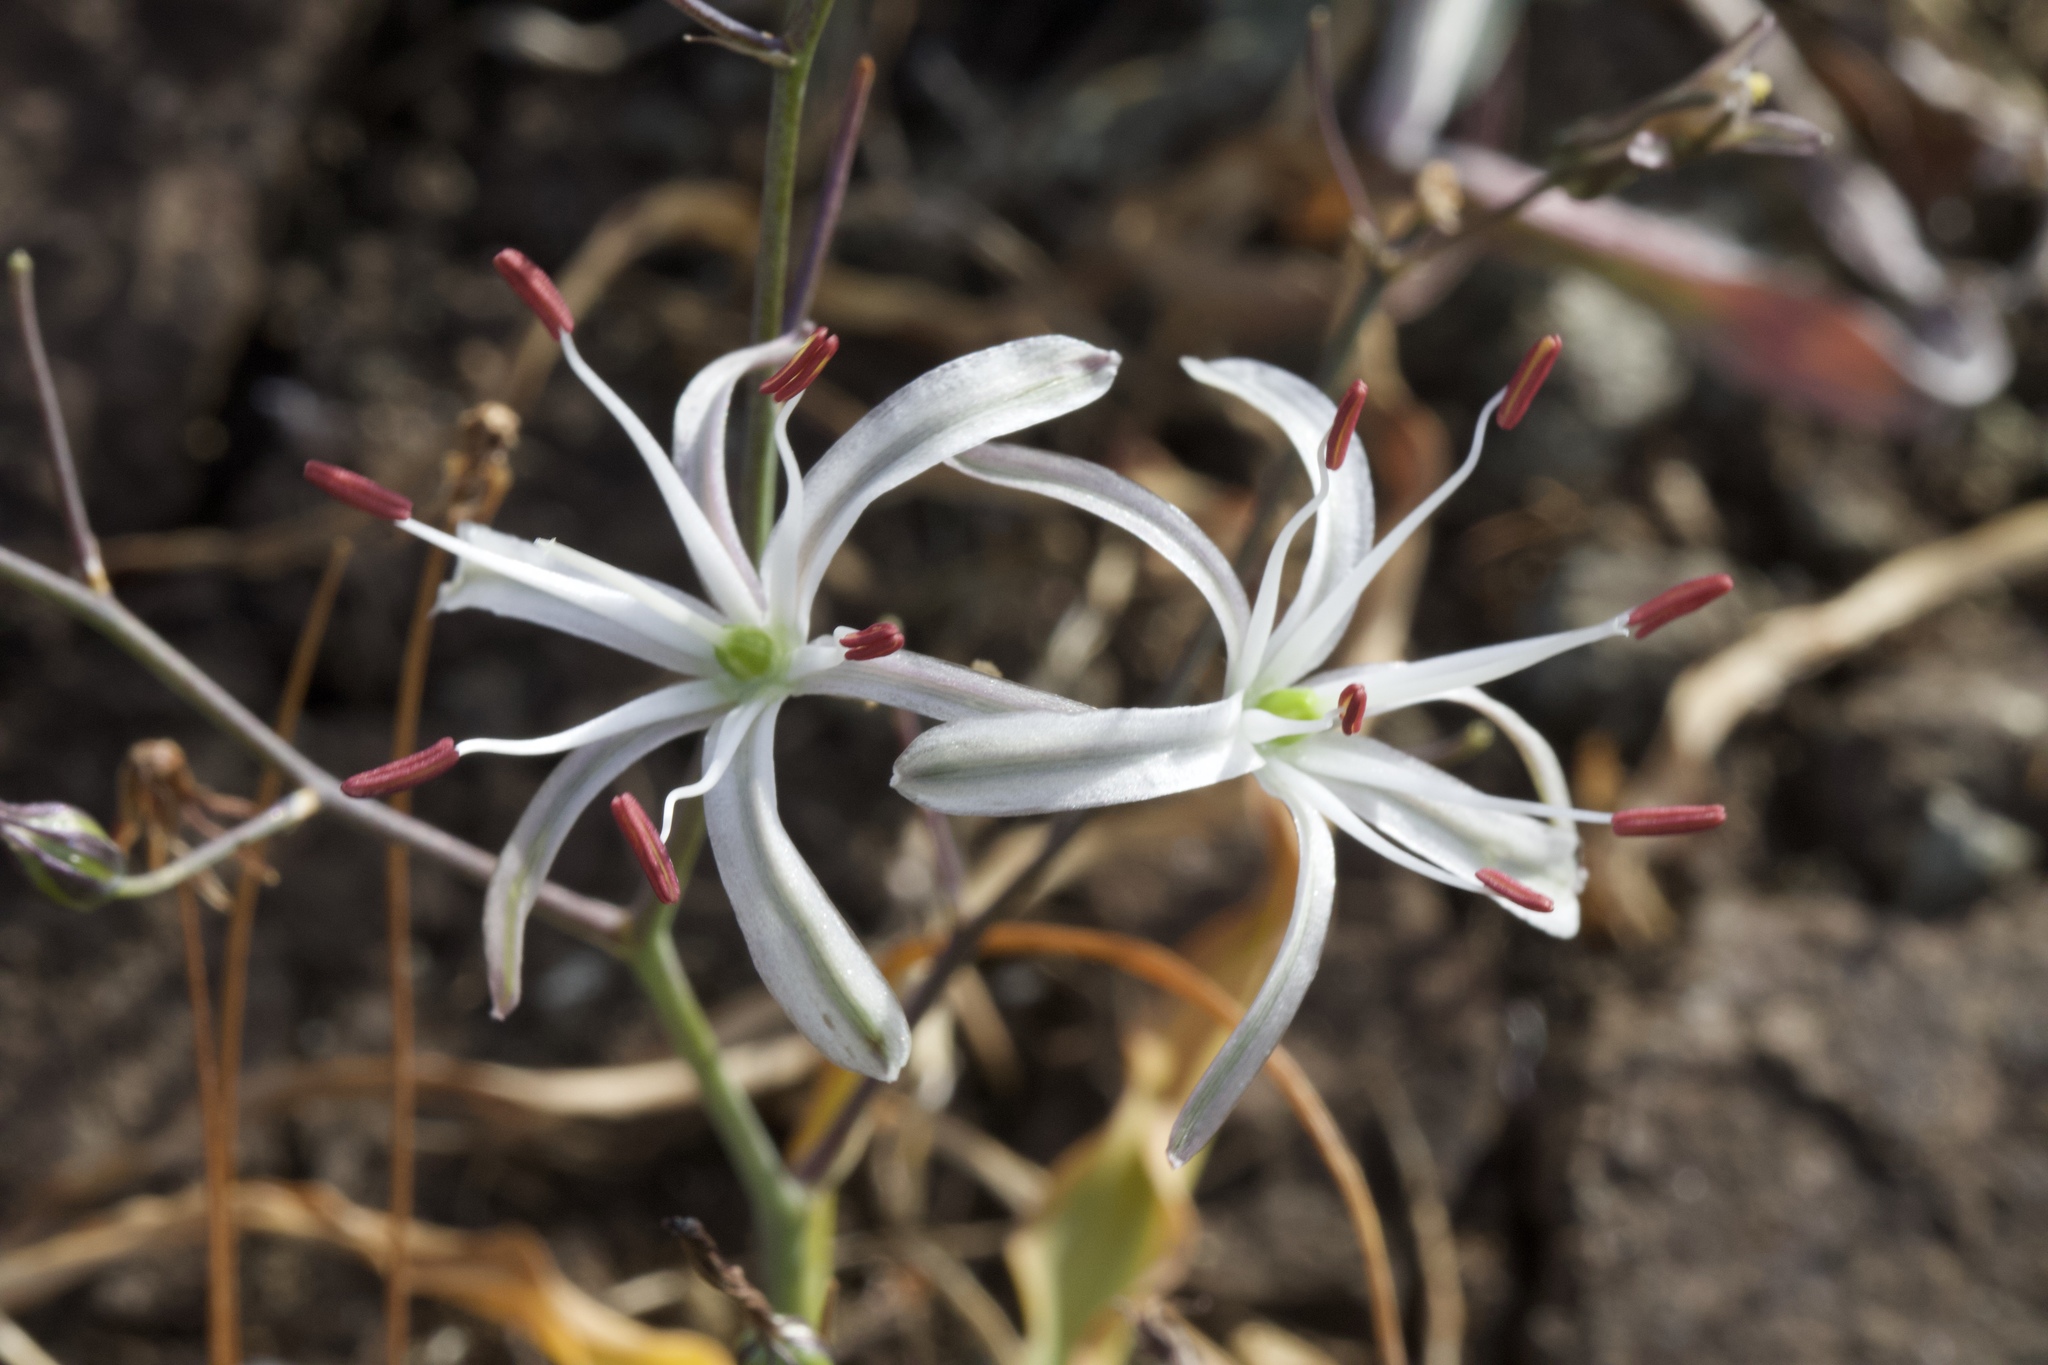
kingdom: Plantae
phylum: Tracheophyta
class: Liliopsida
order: Asparagales
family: Asparagaceae
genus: Chlorogalum
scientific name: Chlorogalum pomeridianum
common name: Amole
